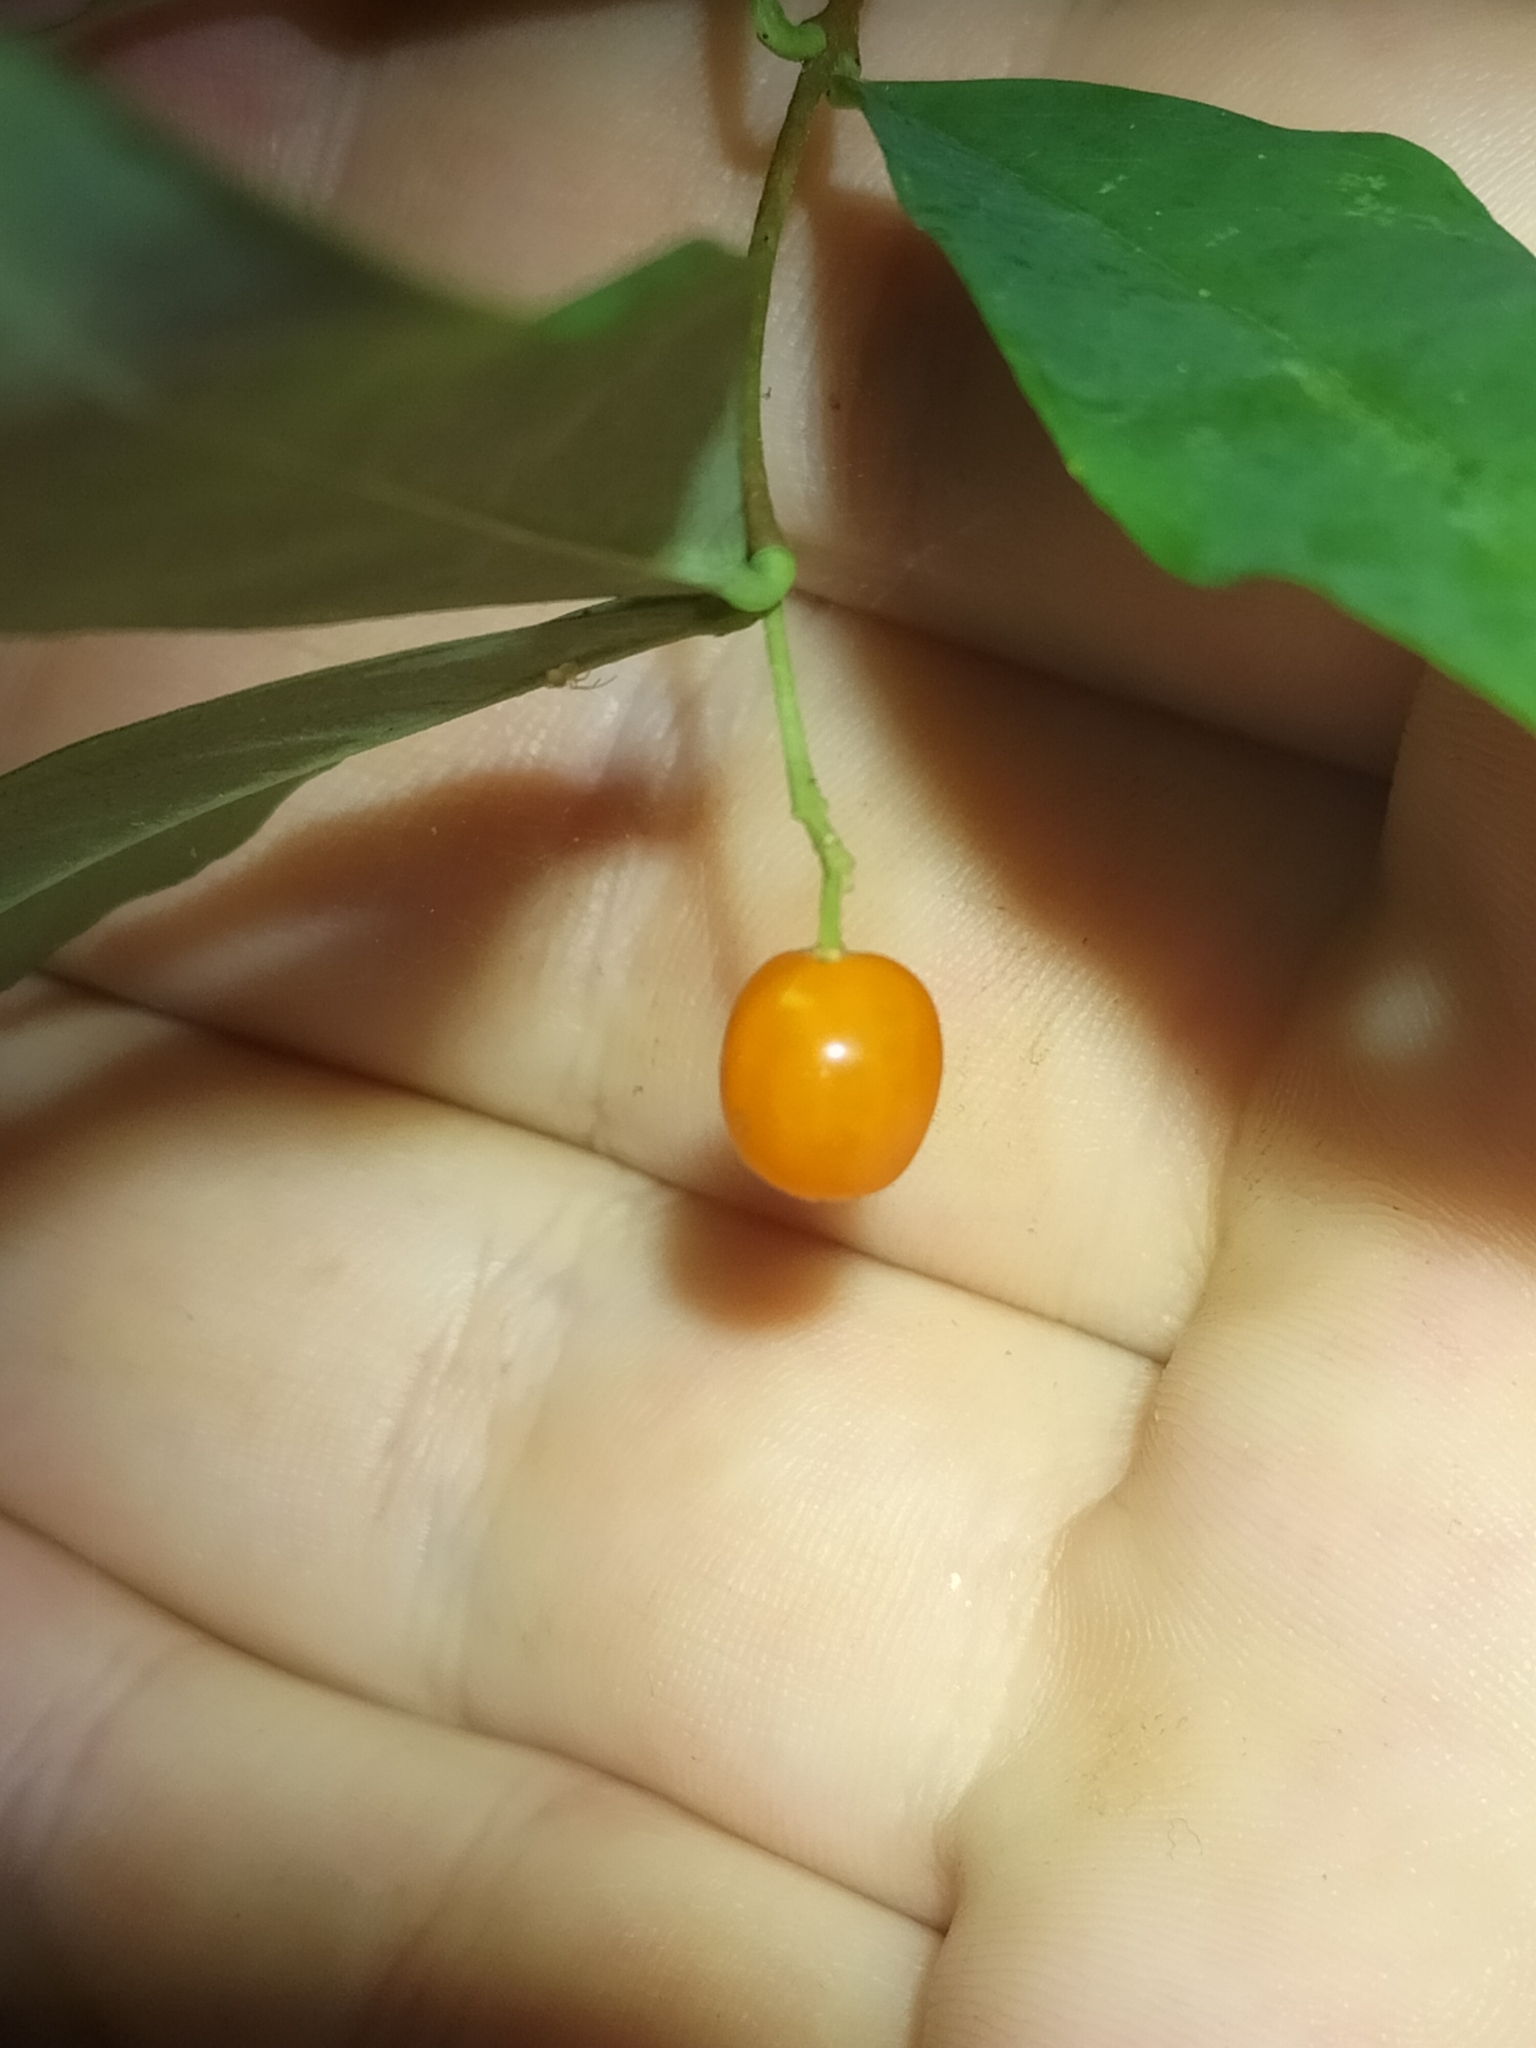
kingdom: Plantae
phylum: Tracheophyta
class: Magnoliopsida
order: Malvales
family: Thymelaeaceae
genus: Wikstroemia
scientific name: Wikstroemia indica
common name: Tiebush
